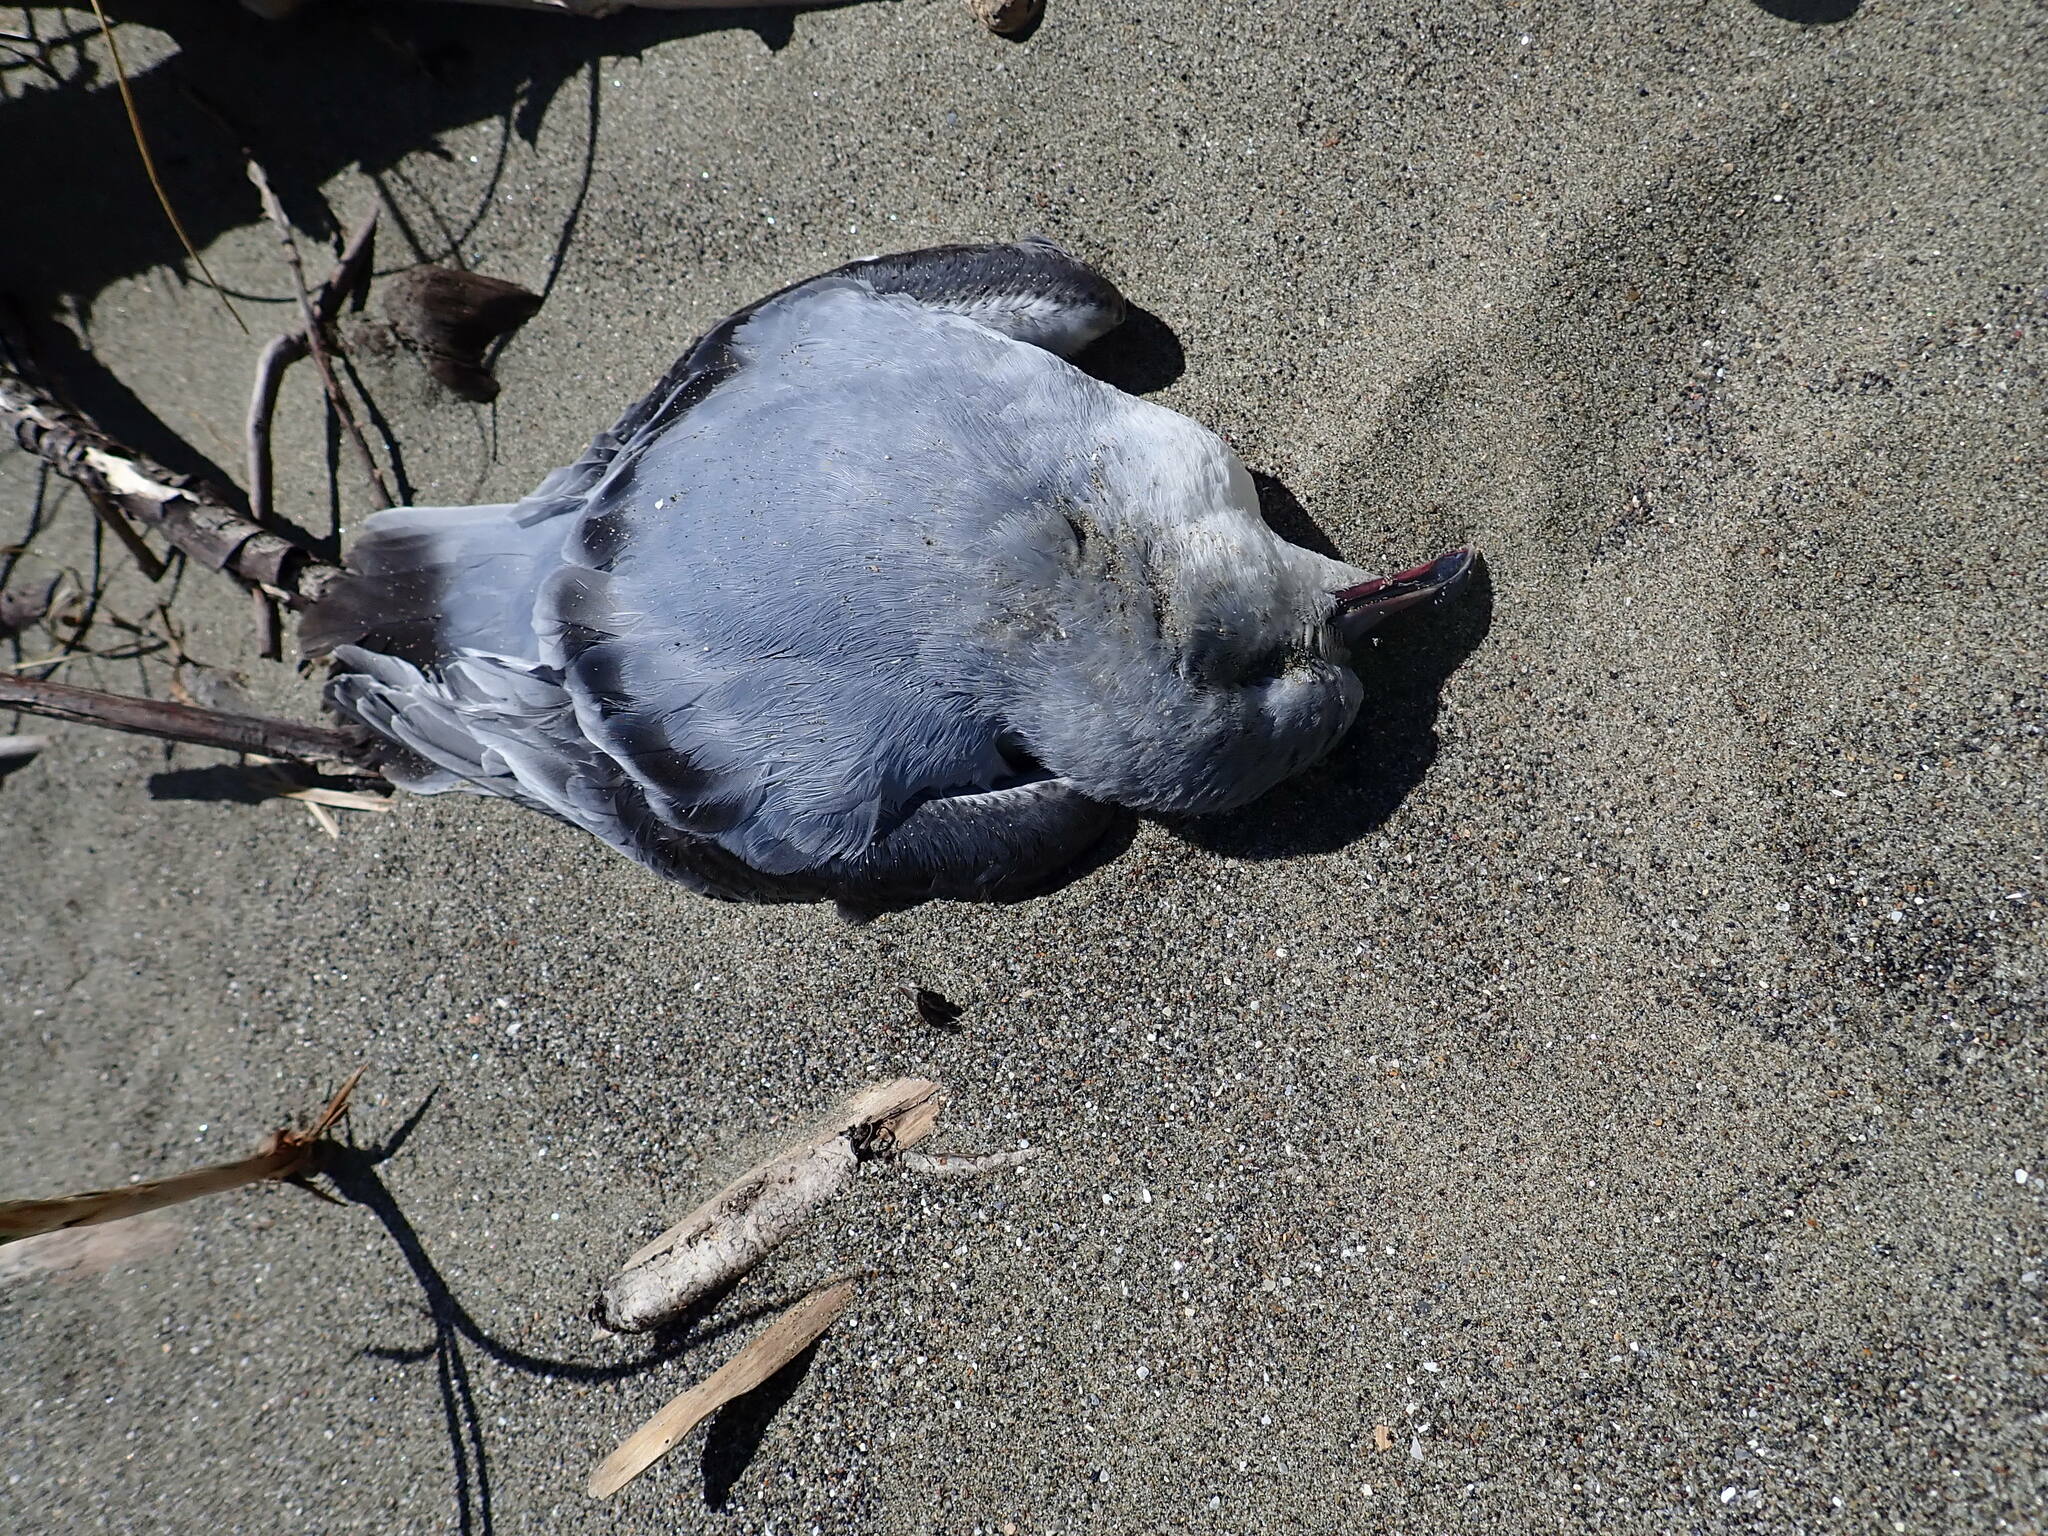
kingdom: Animalia
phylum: Chordata
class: Aves
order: Procellariiformes
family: Procellariidae
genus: Pachyptila
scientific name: Pachyptila turtur
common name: Fairy prion
